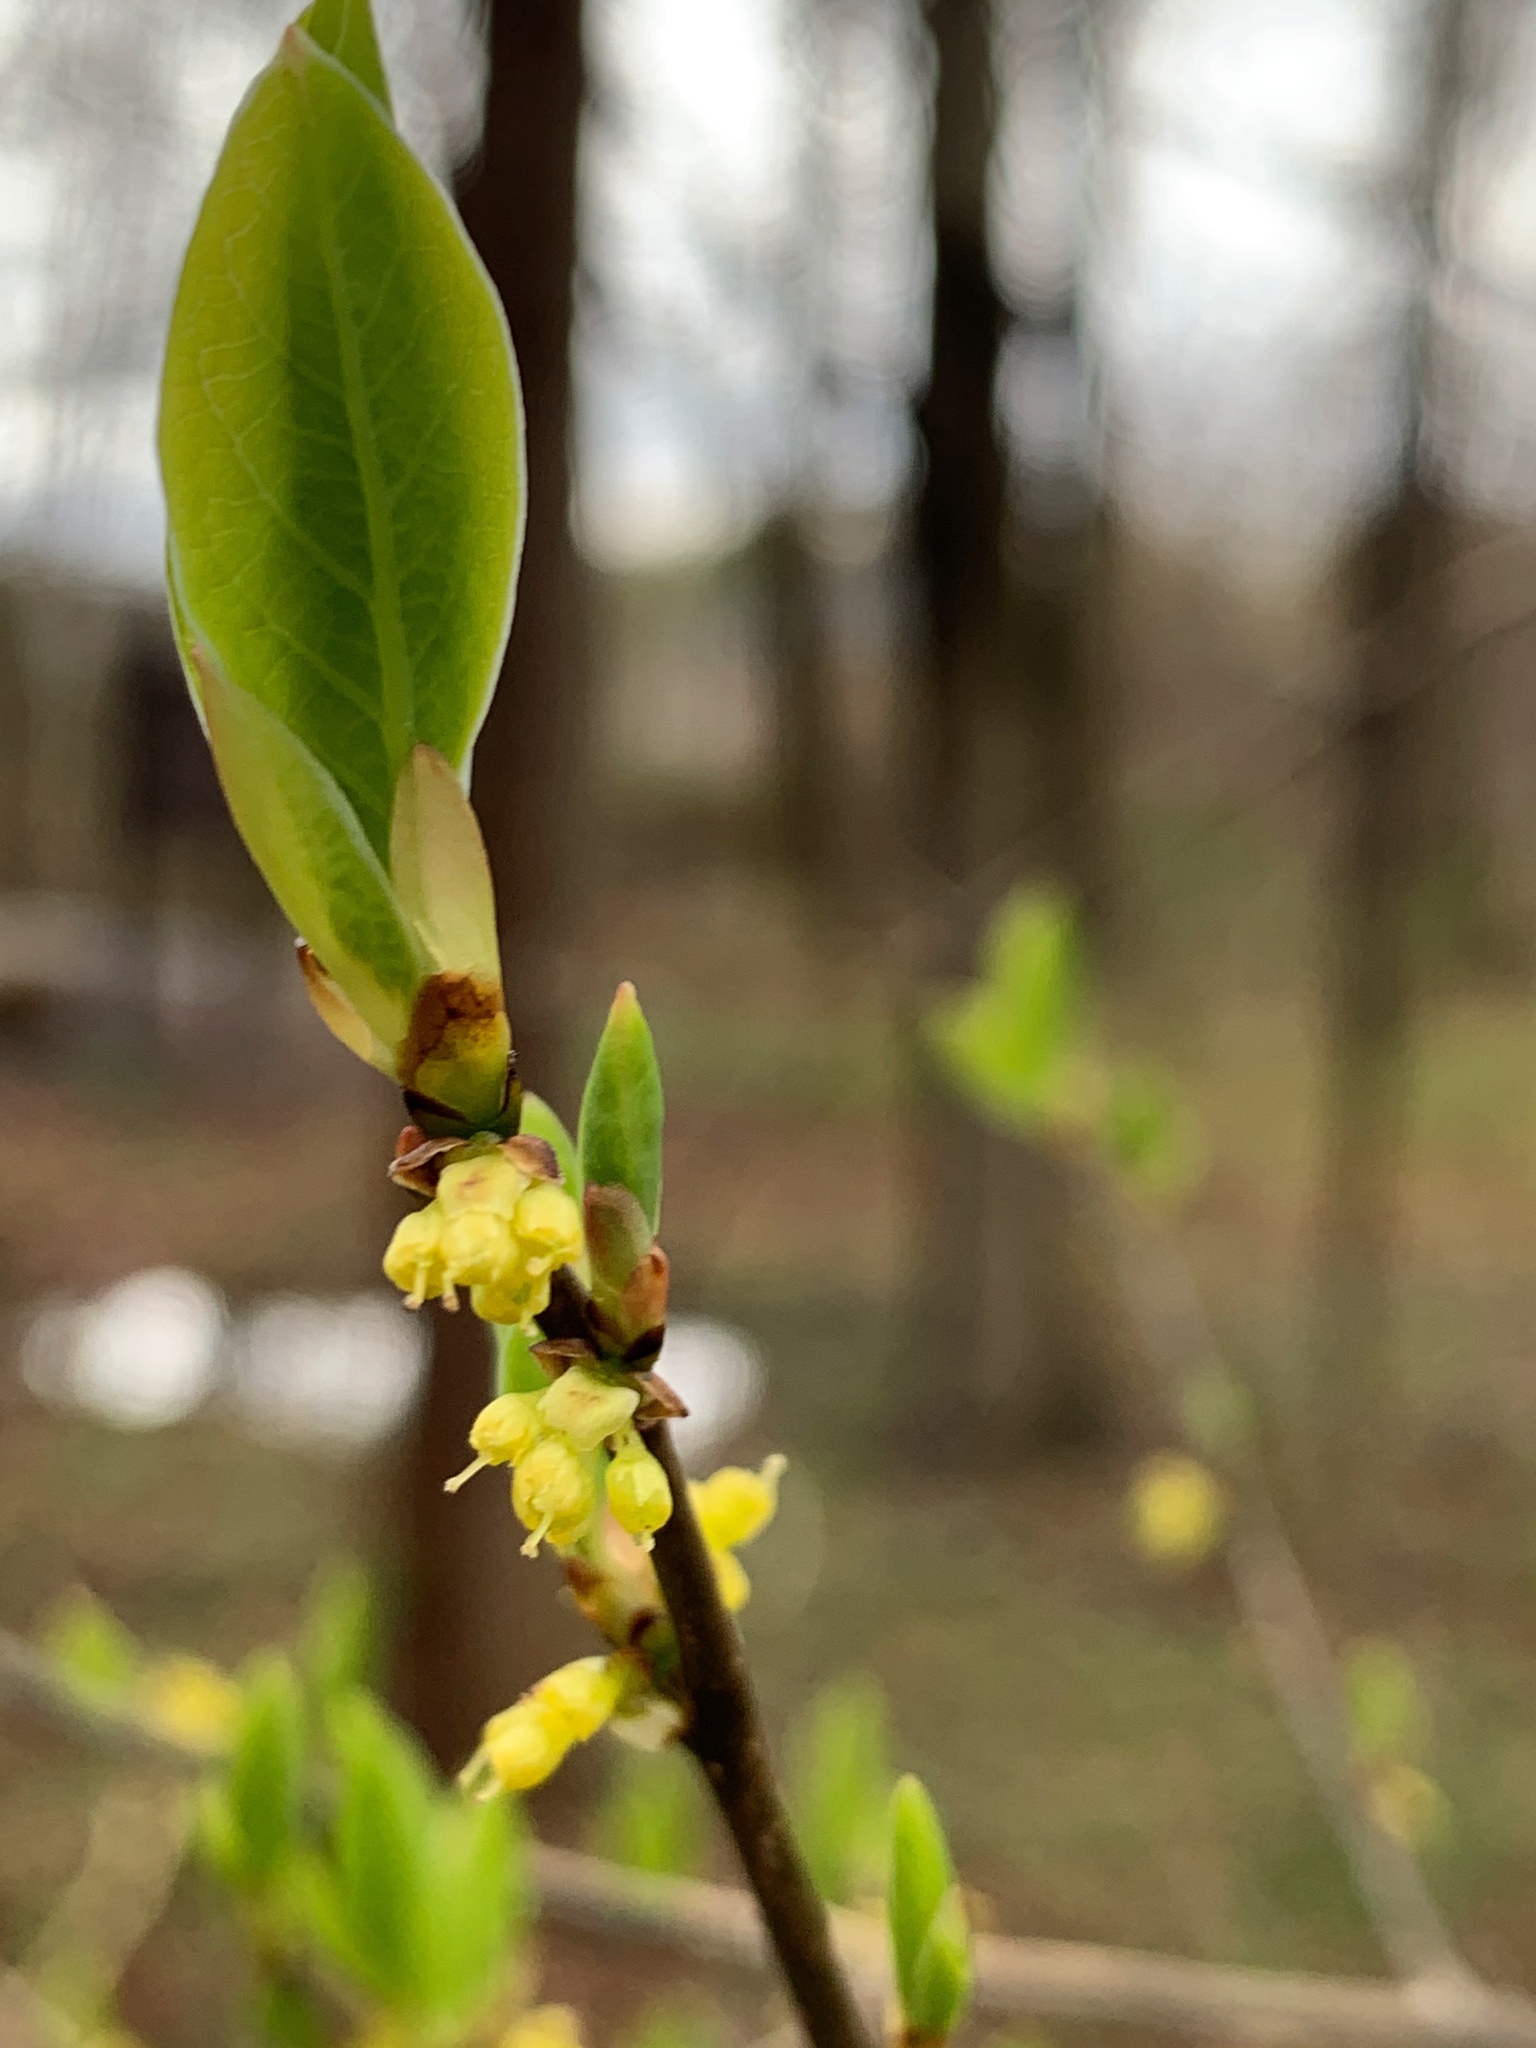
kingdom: Plantae
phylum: Tracheophyta
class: Magnoliopsida
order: Laurales
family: Lauraceae
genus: Lindera
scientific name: Lindera benzoin
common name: Spicebush
